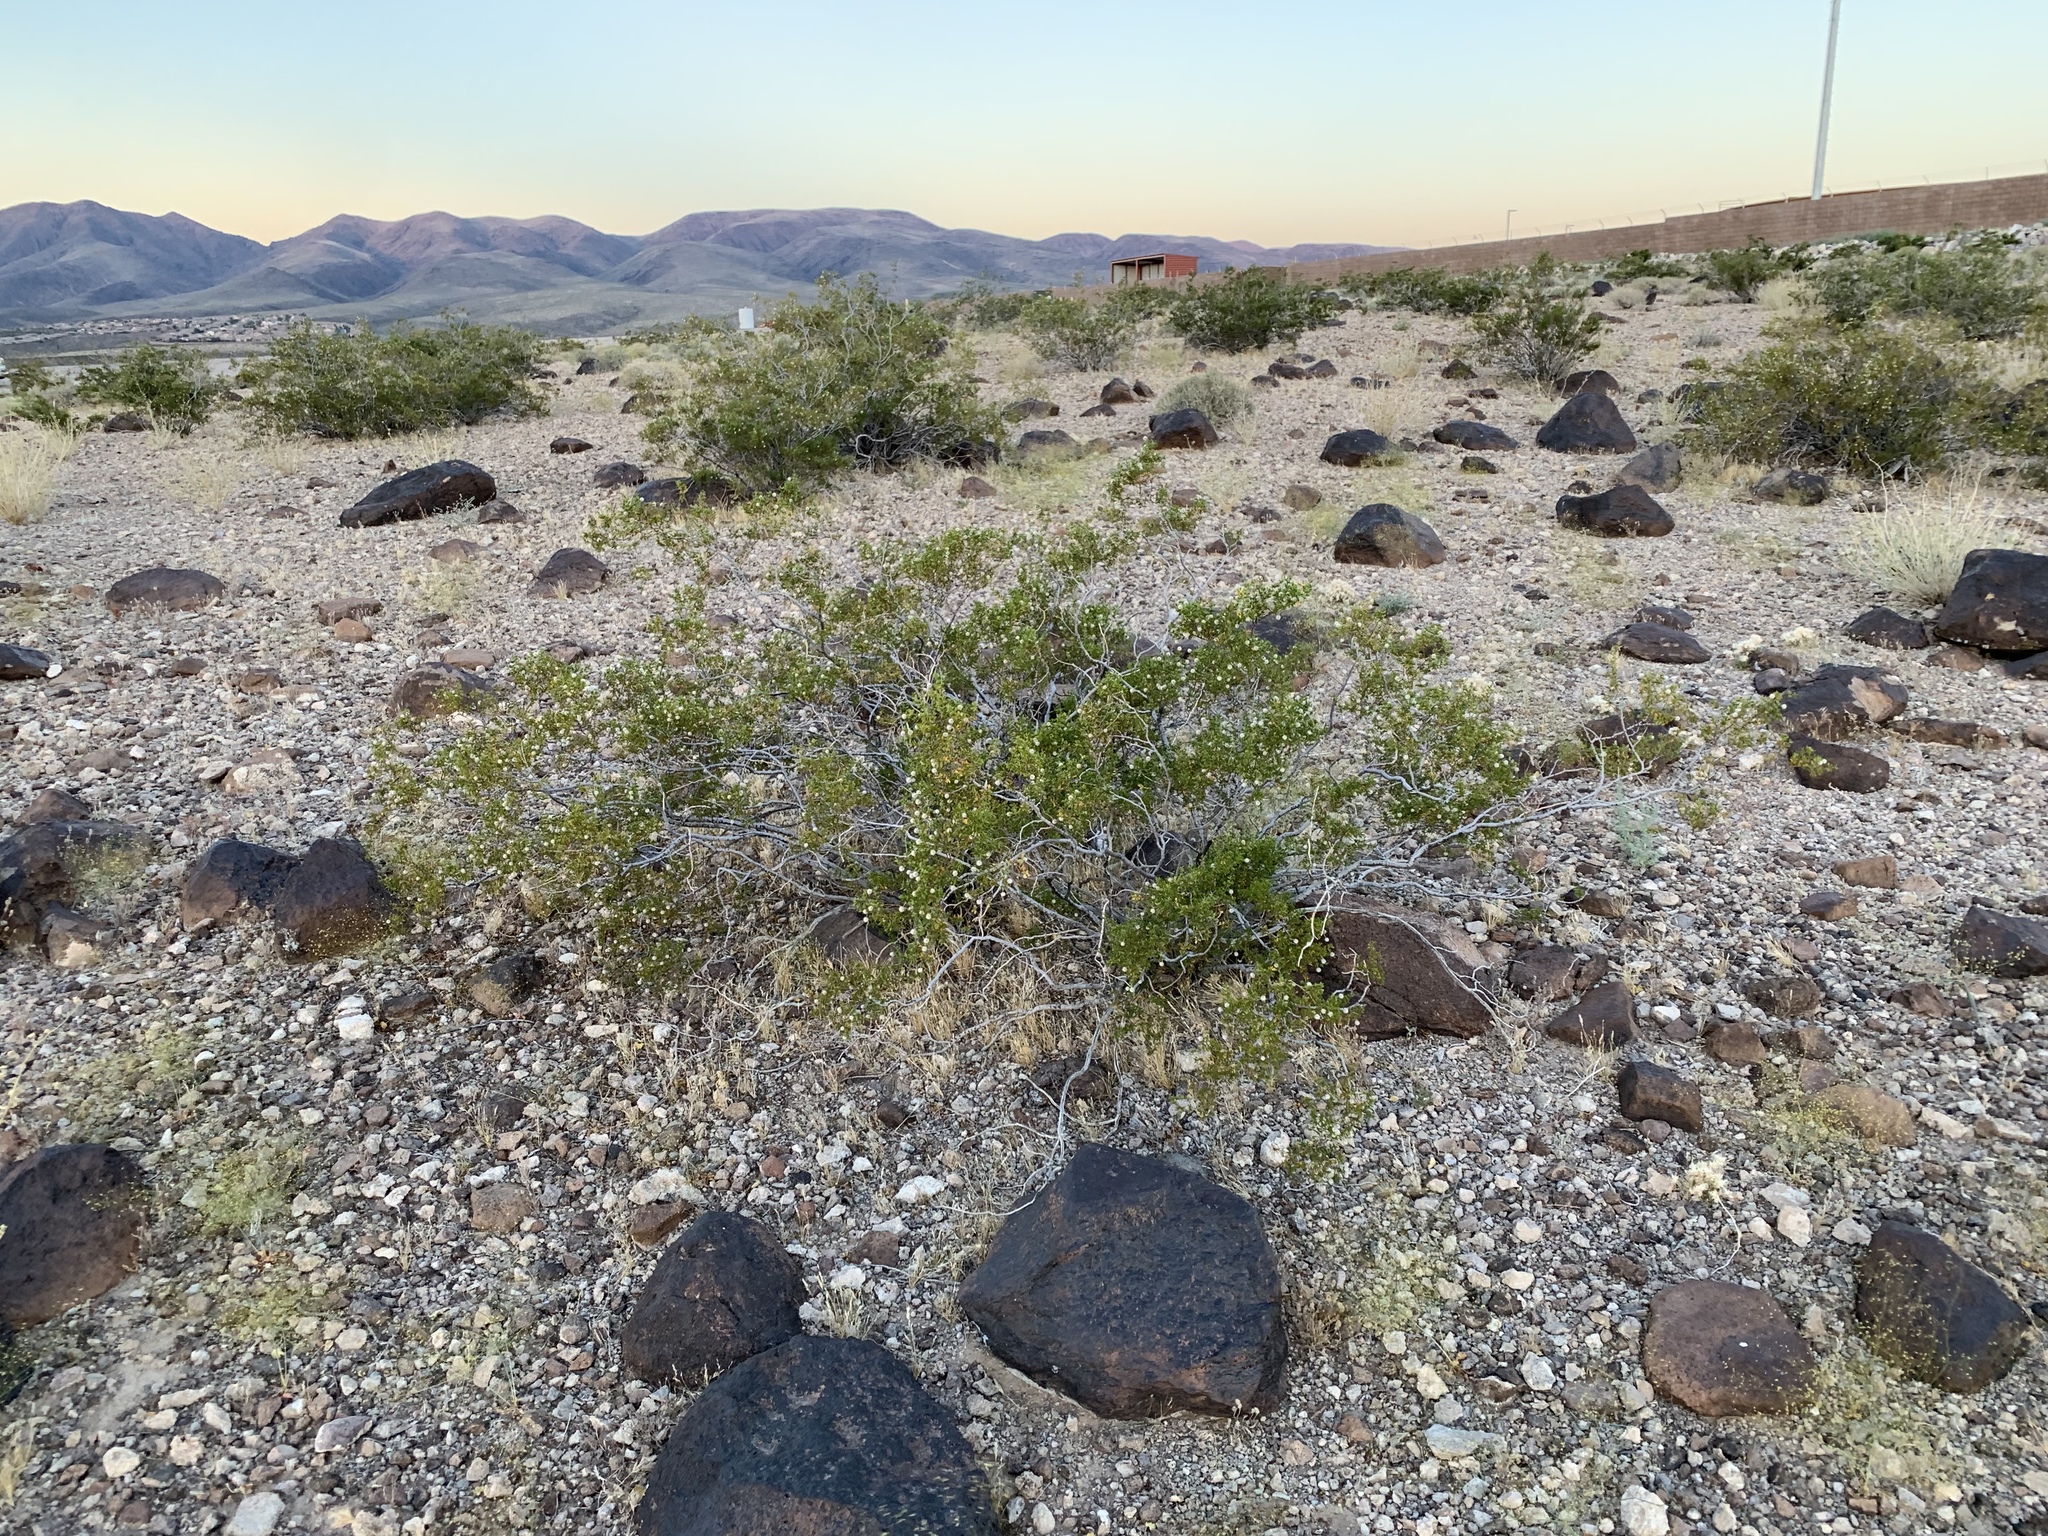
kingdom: Plantae
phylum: Tracheophyta
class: Magnoliopsida
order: Zygophyllales
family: Zygophyllaceae
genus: Larrea
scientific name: Larrea tridentata
